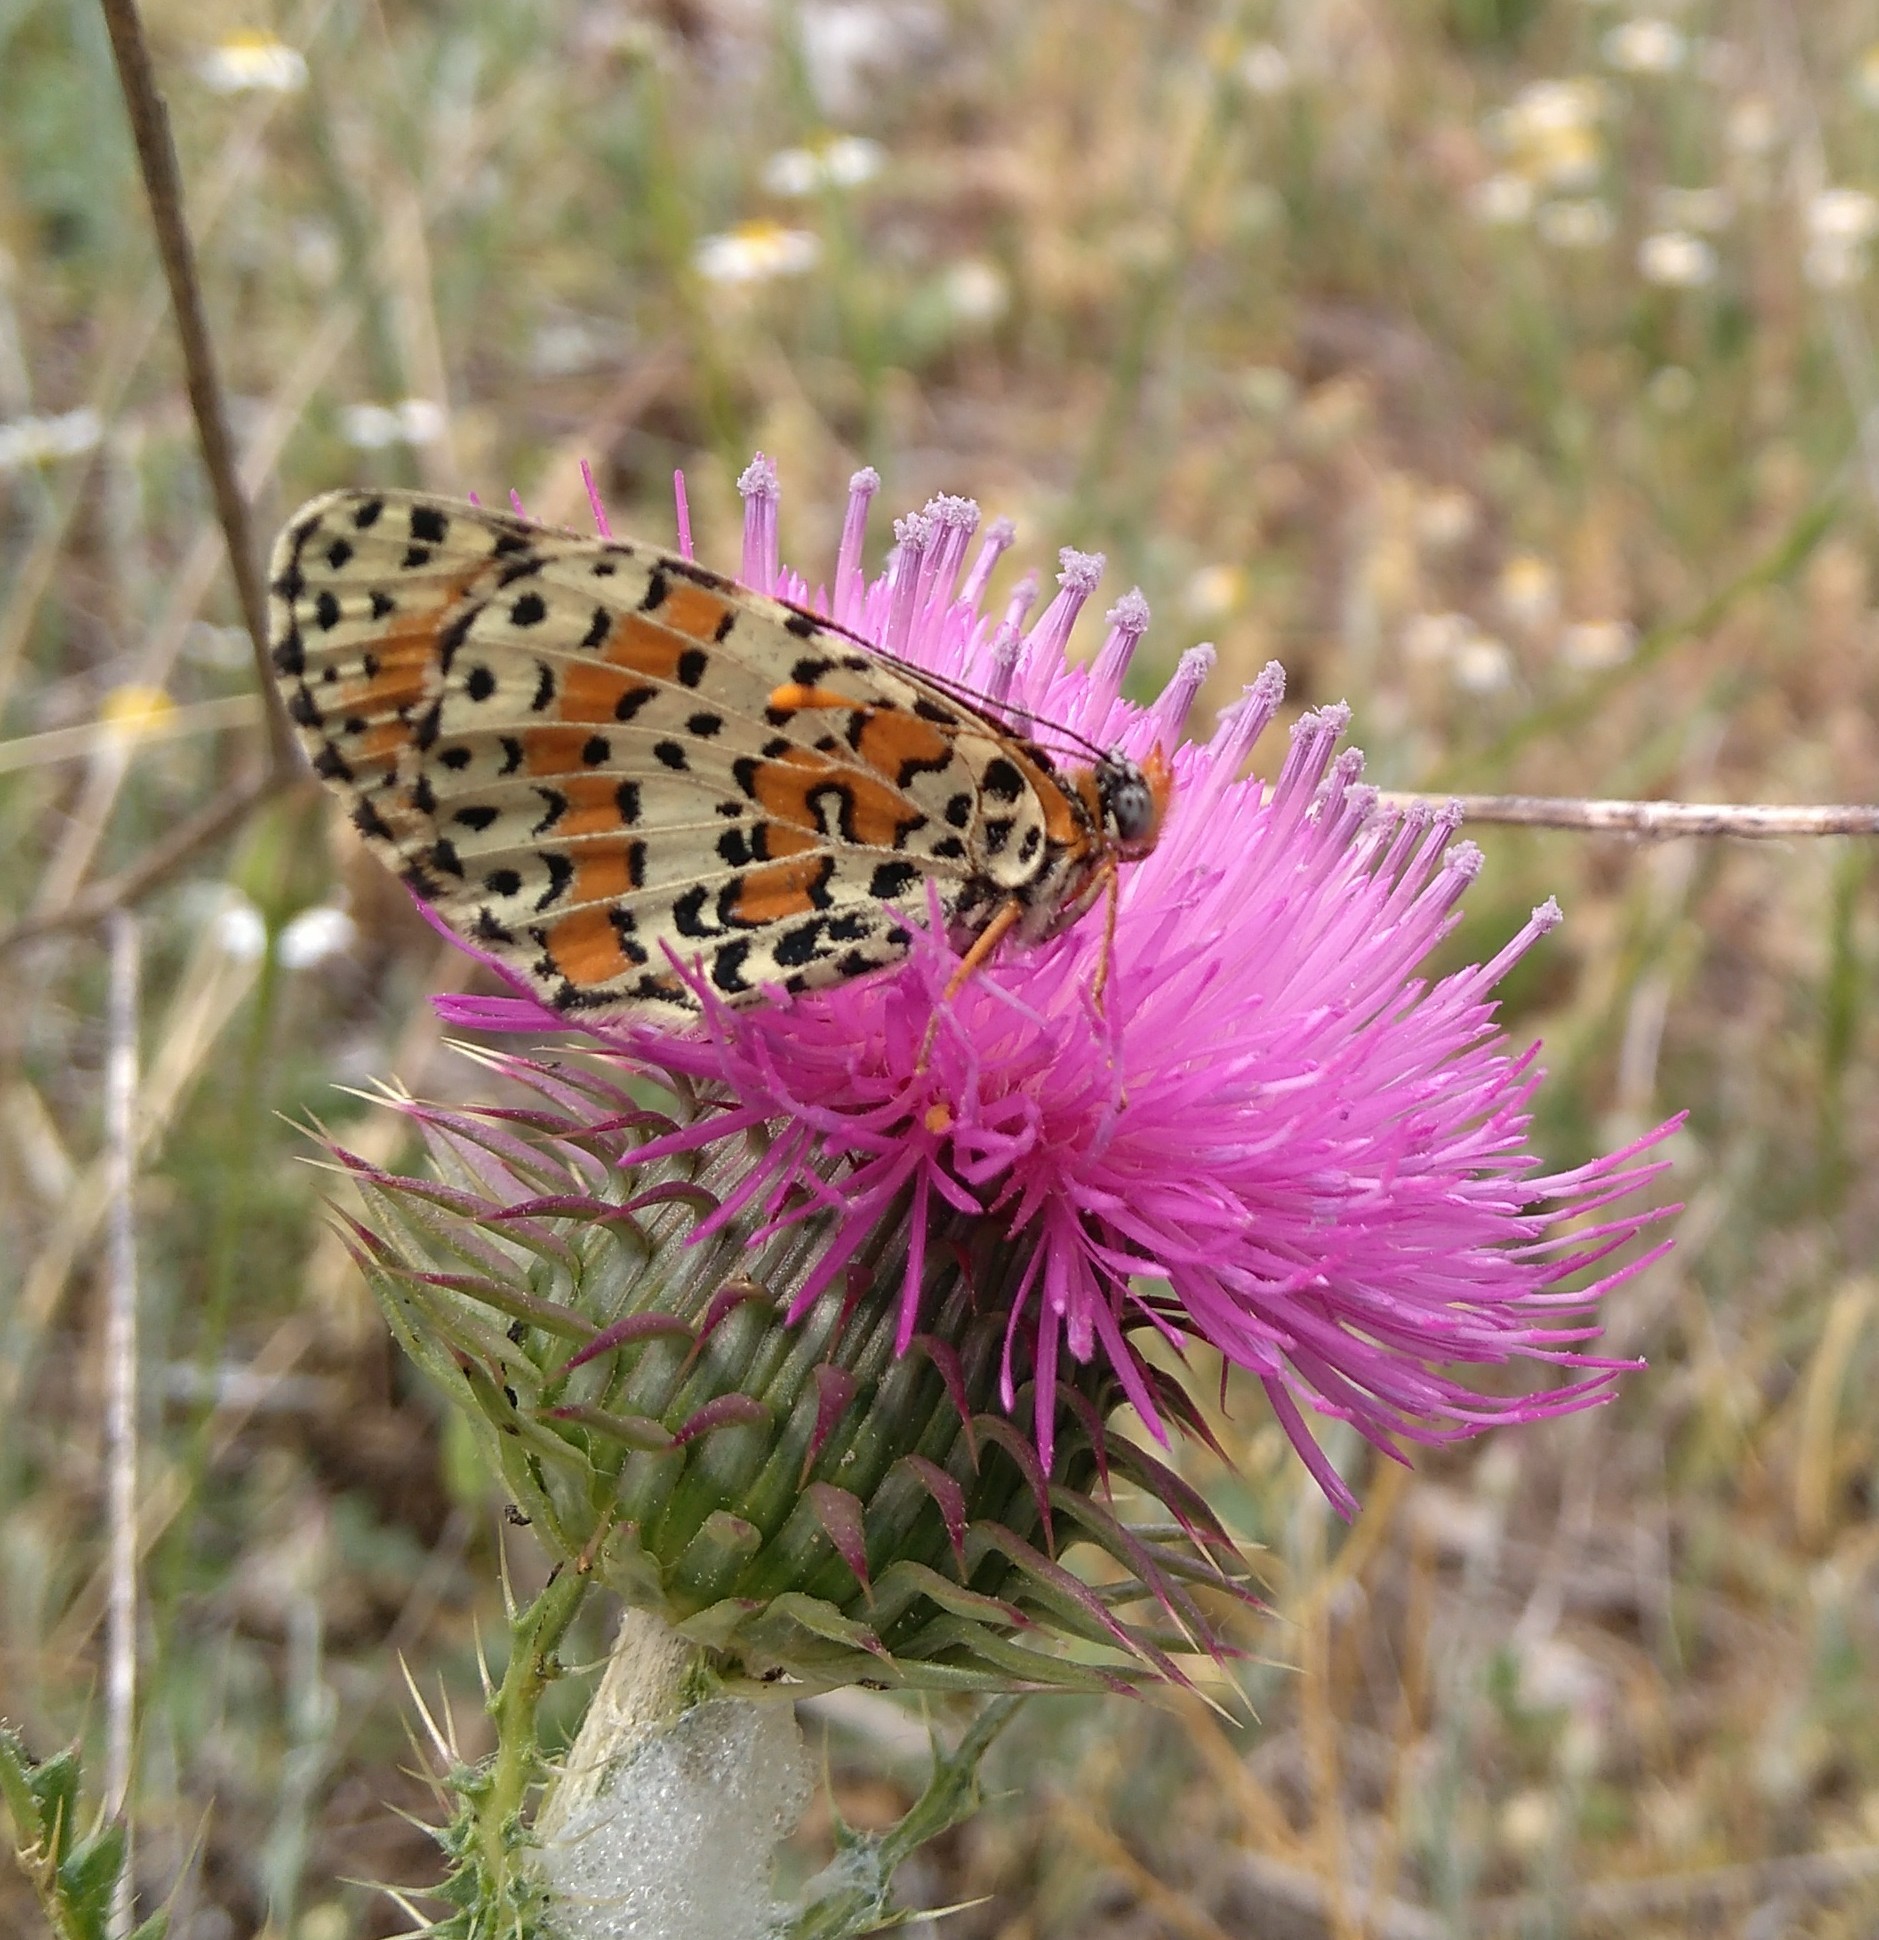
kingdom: Animalia
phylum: Arthropoda
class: Insecta
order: Lepidoptera
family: Nymphalidae
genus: Melitaea
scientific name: Melitaea didyma
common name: Spotted fritillary
